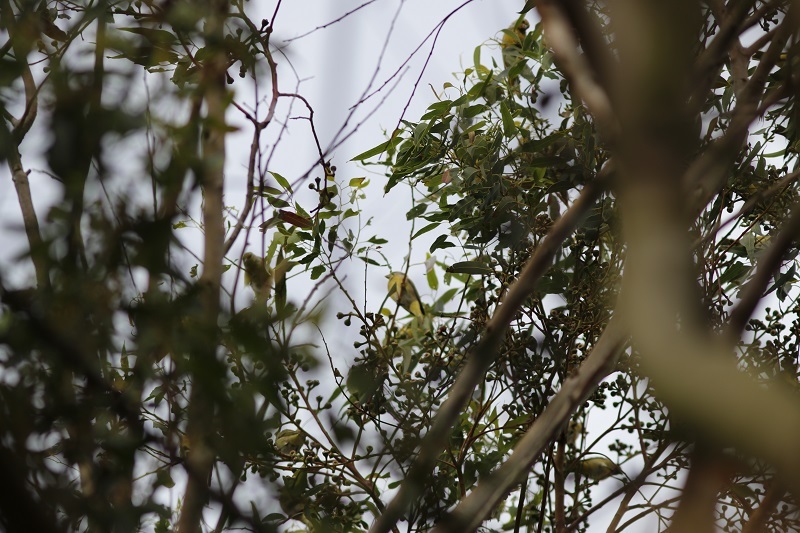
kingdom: Animalia
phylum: Chordata
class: Aves
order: Passeriformes
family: Fringillidae
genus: Serinus
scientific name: Serinus canicollis
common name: Cape canary
